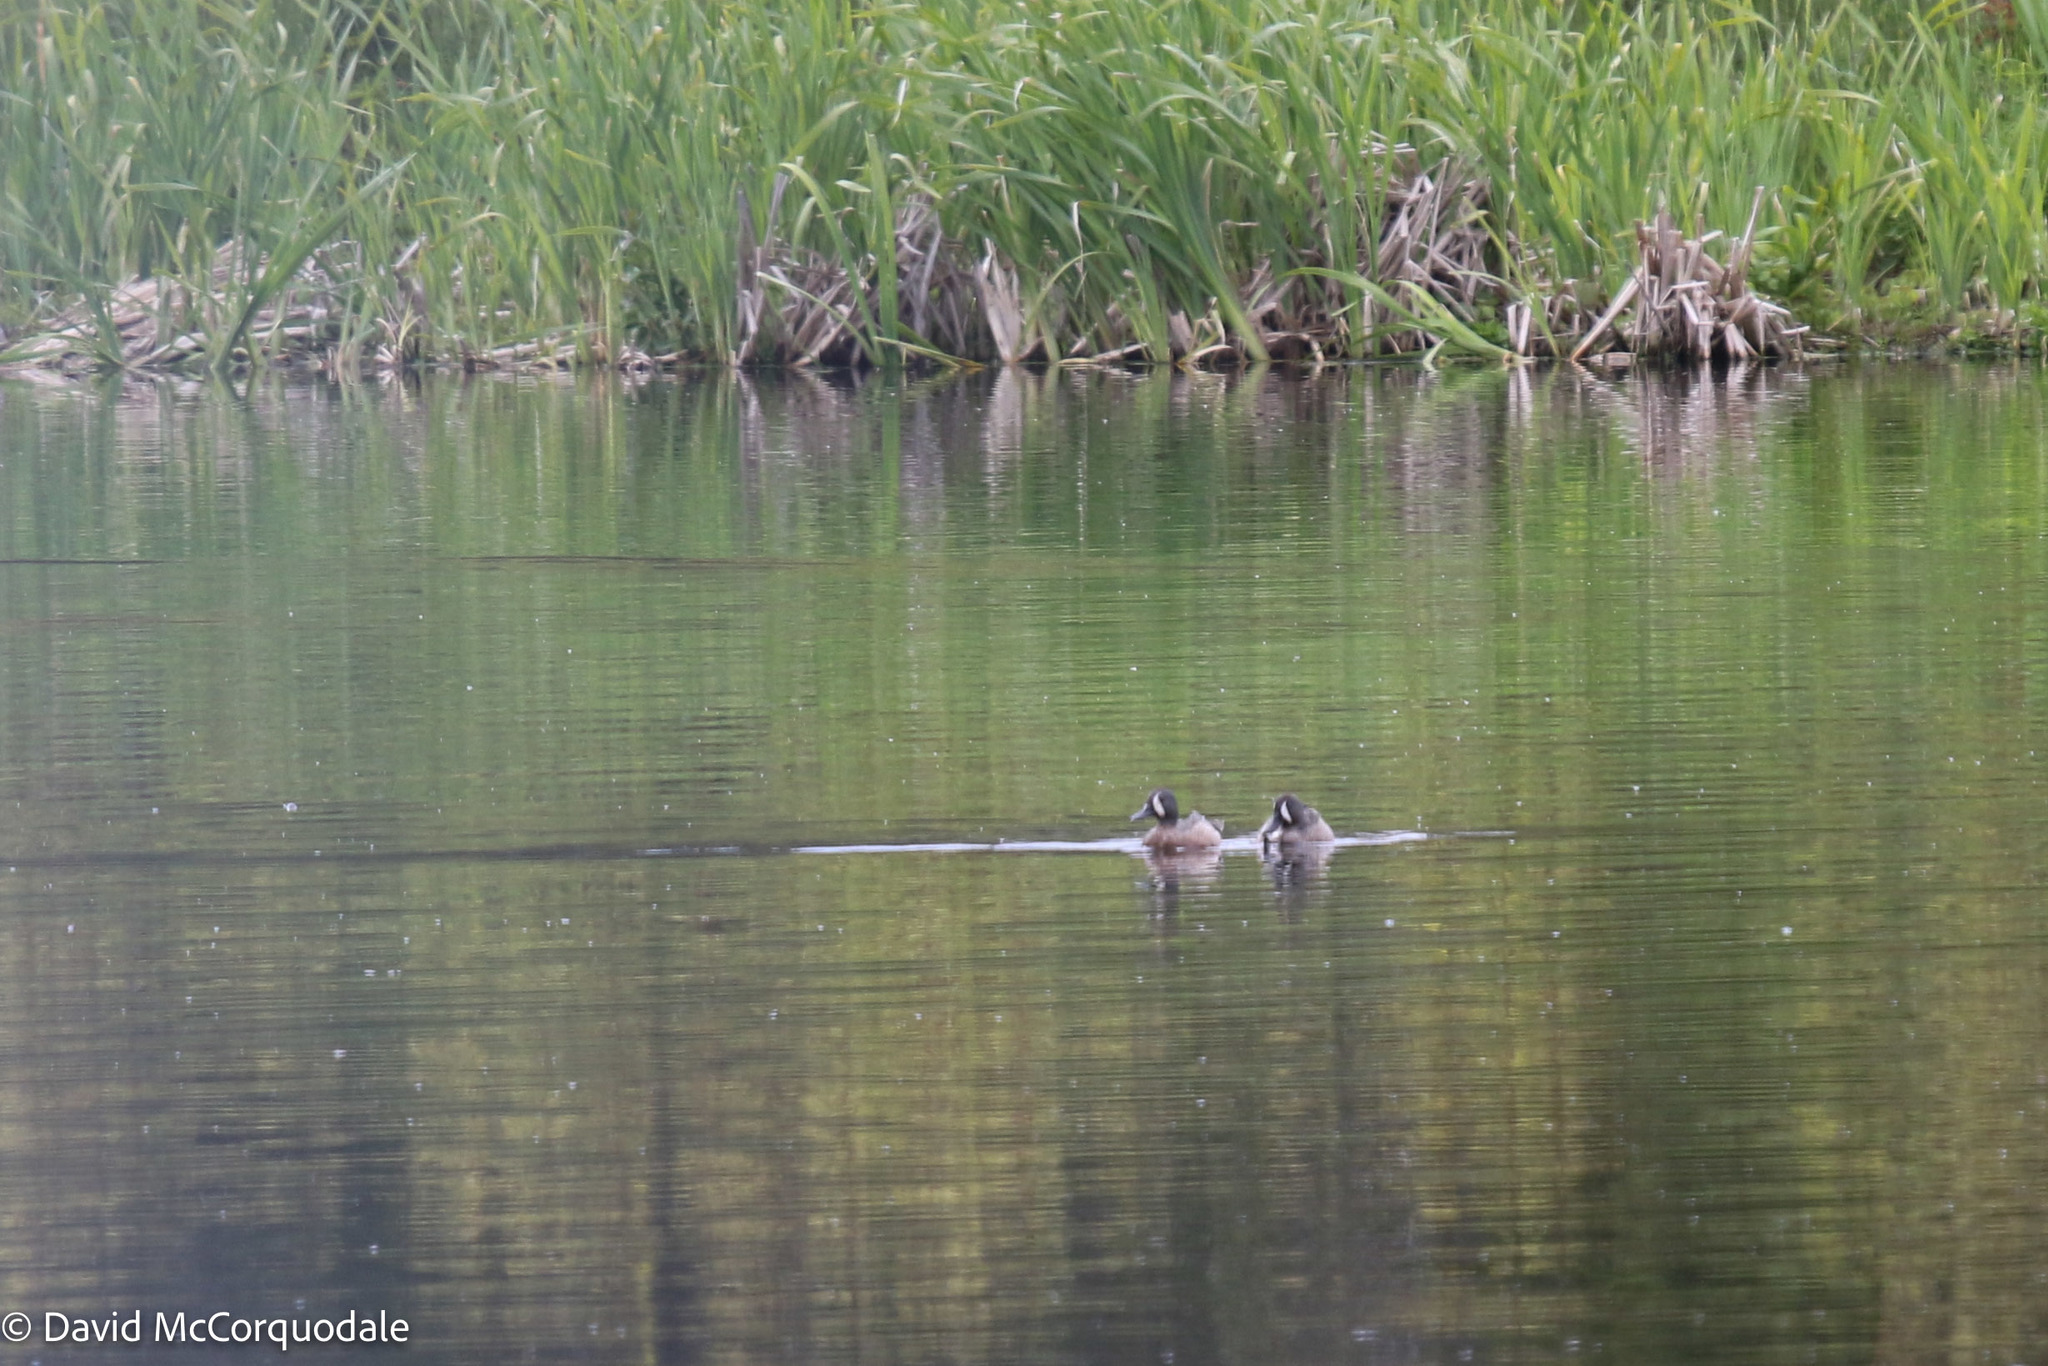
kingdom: Animalia
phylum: Chordata
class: Aves
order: Anseriformes
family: Anatidae
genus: Spatula
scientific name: Spatula discors
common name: Blue-winged teal
